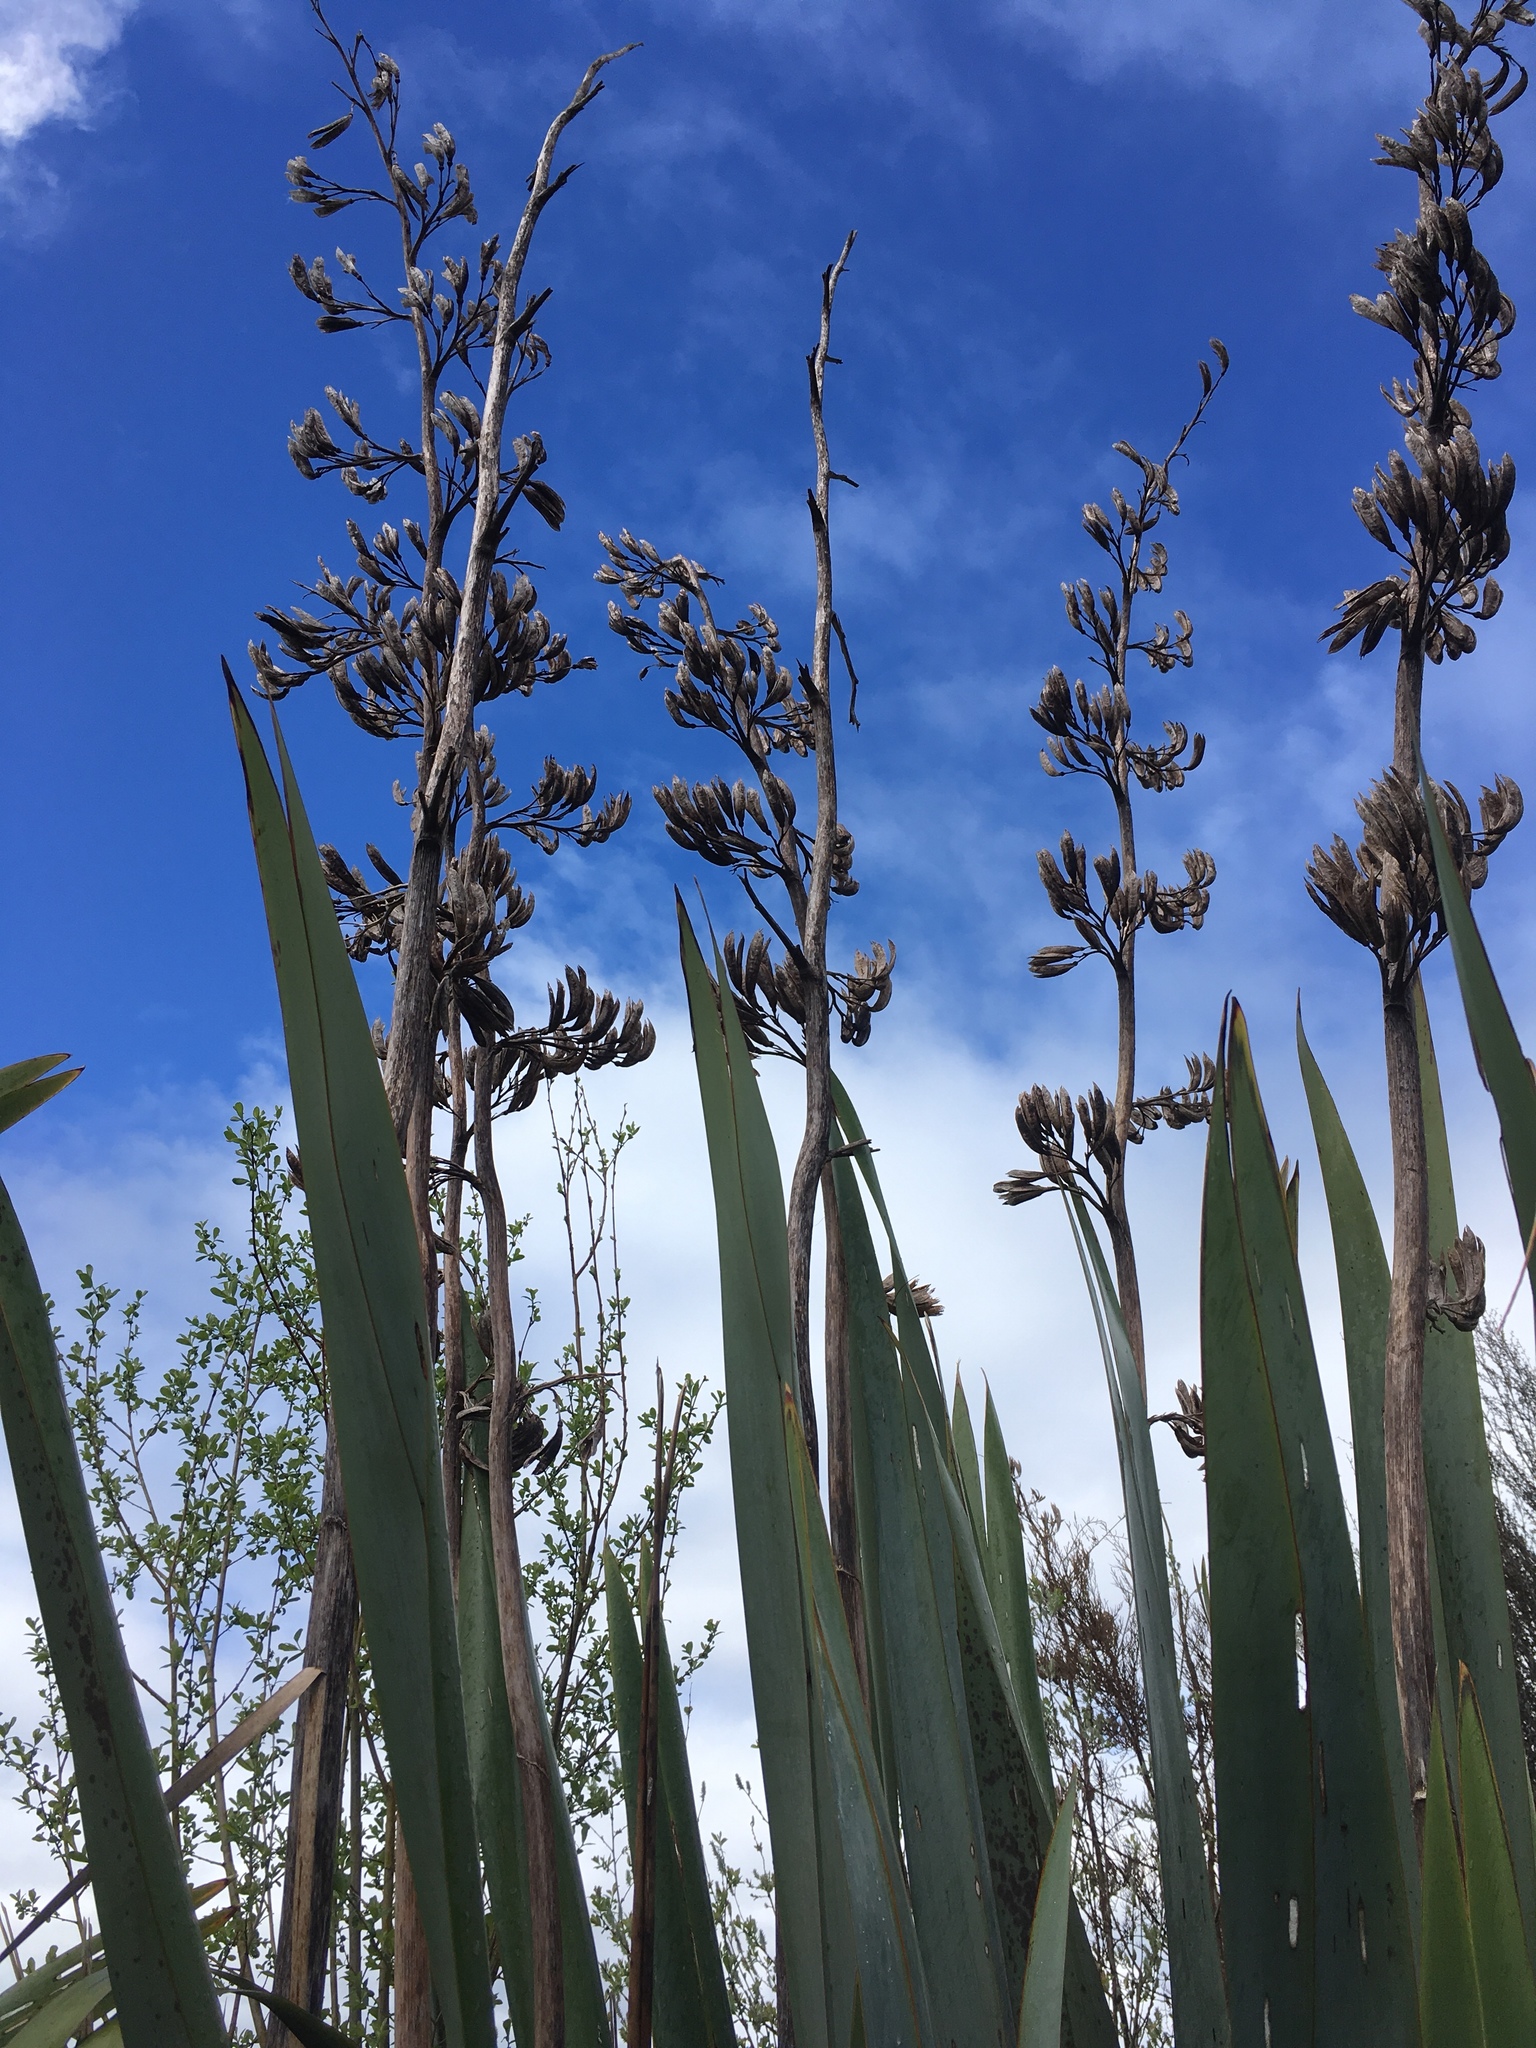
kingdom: Plantae
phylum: Tracheophyta
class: Liliopsida
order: Asparagales
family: Asphodelaceae
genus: Phormium
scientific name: Phormium tenax
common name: New zealand flax
